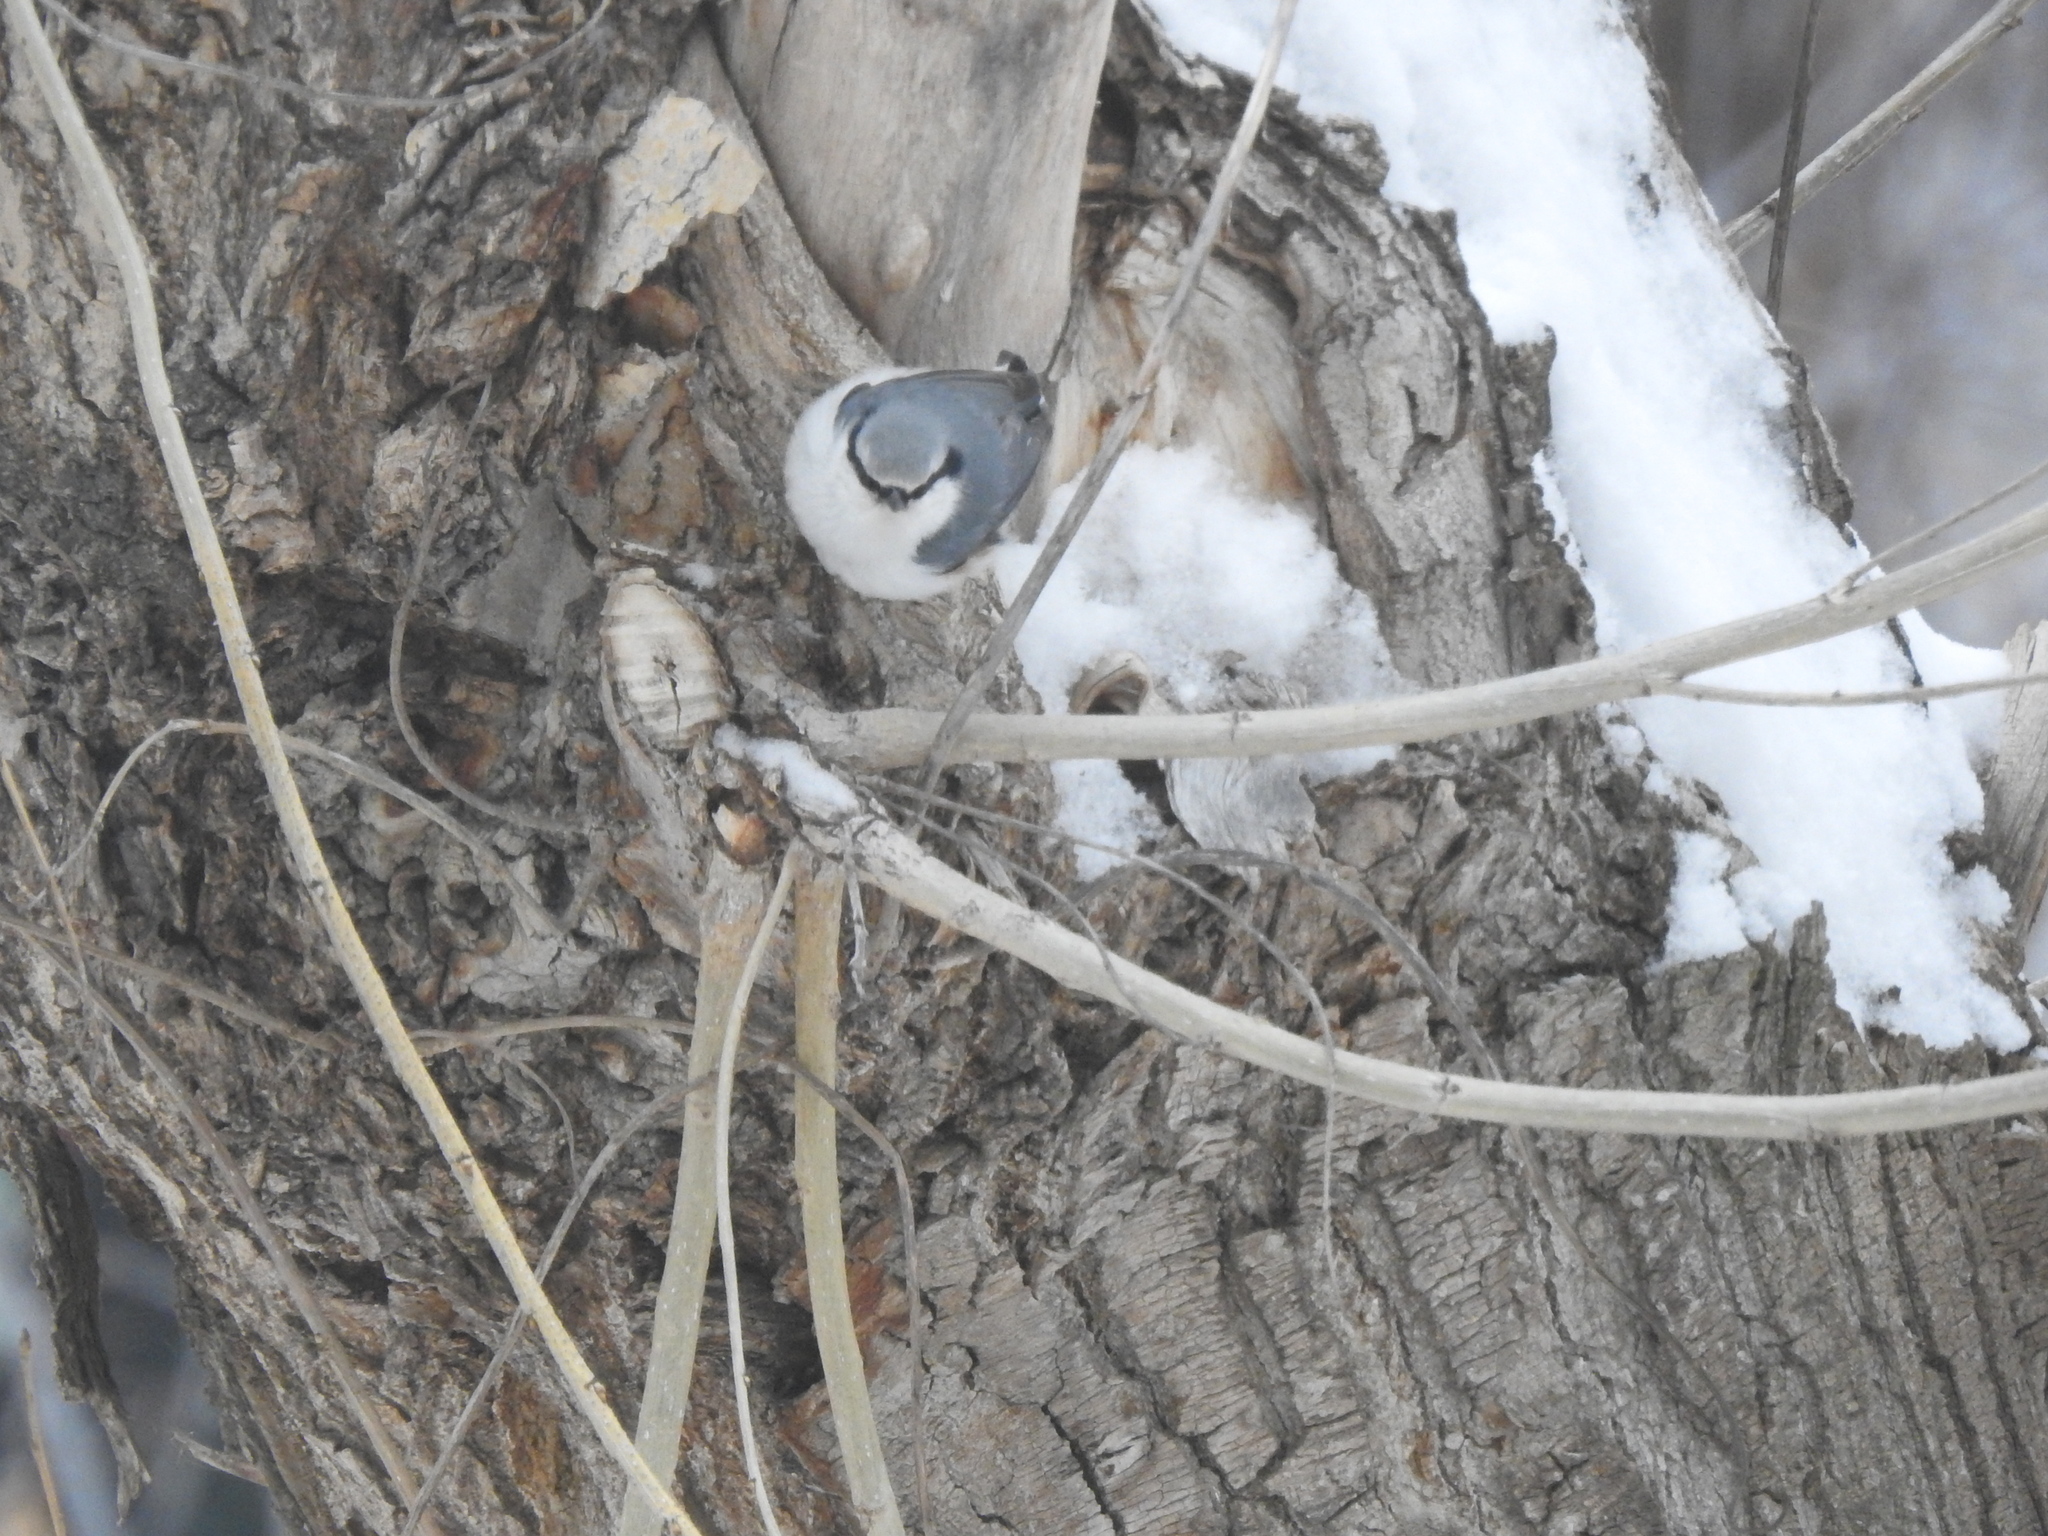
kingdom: Animalia
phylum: Chordata
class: Aves
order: Passeriformes
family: Sittidae
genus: Sitta
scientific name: Sitta europaea
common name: Eurasian nuthatch
